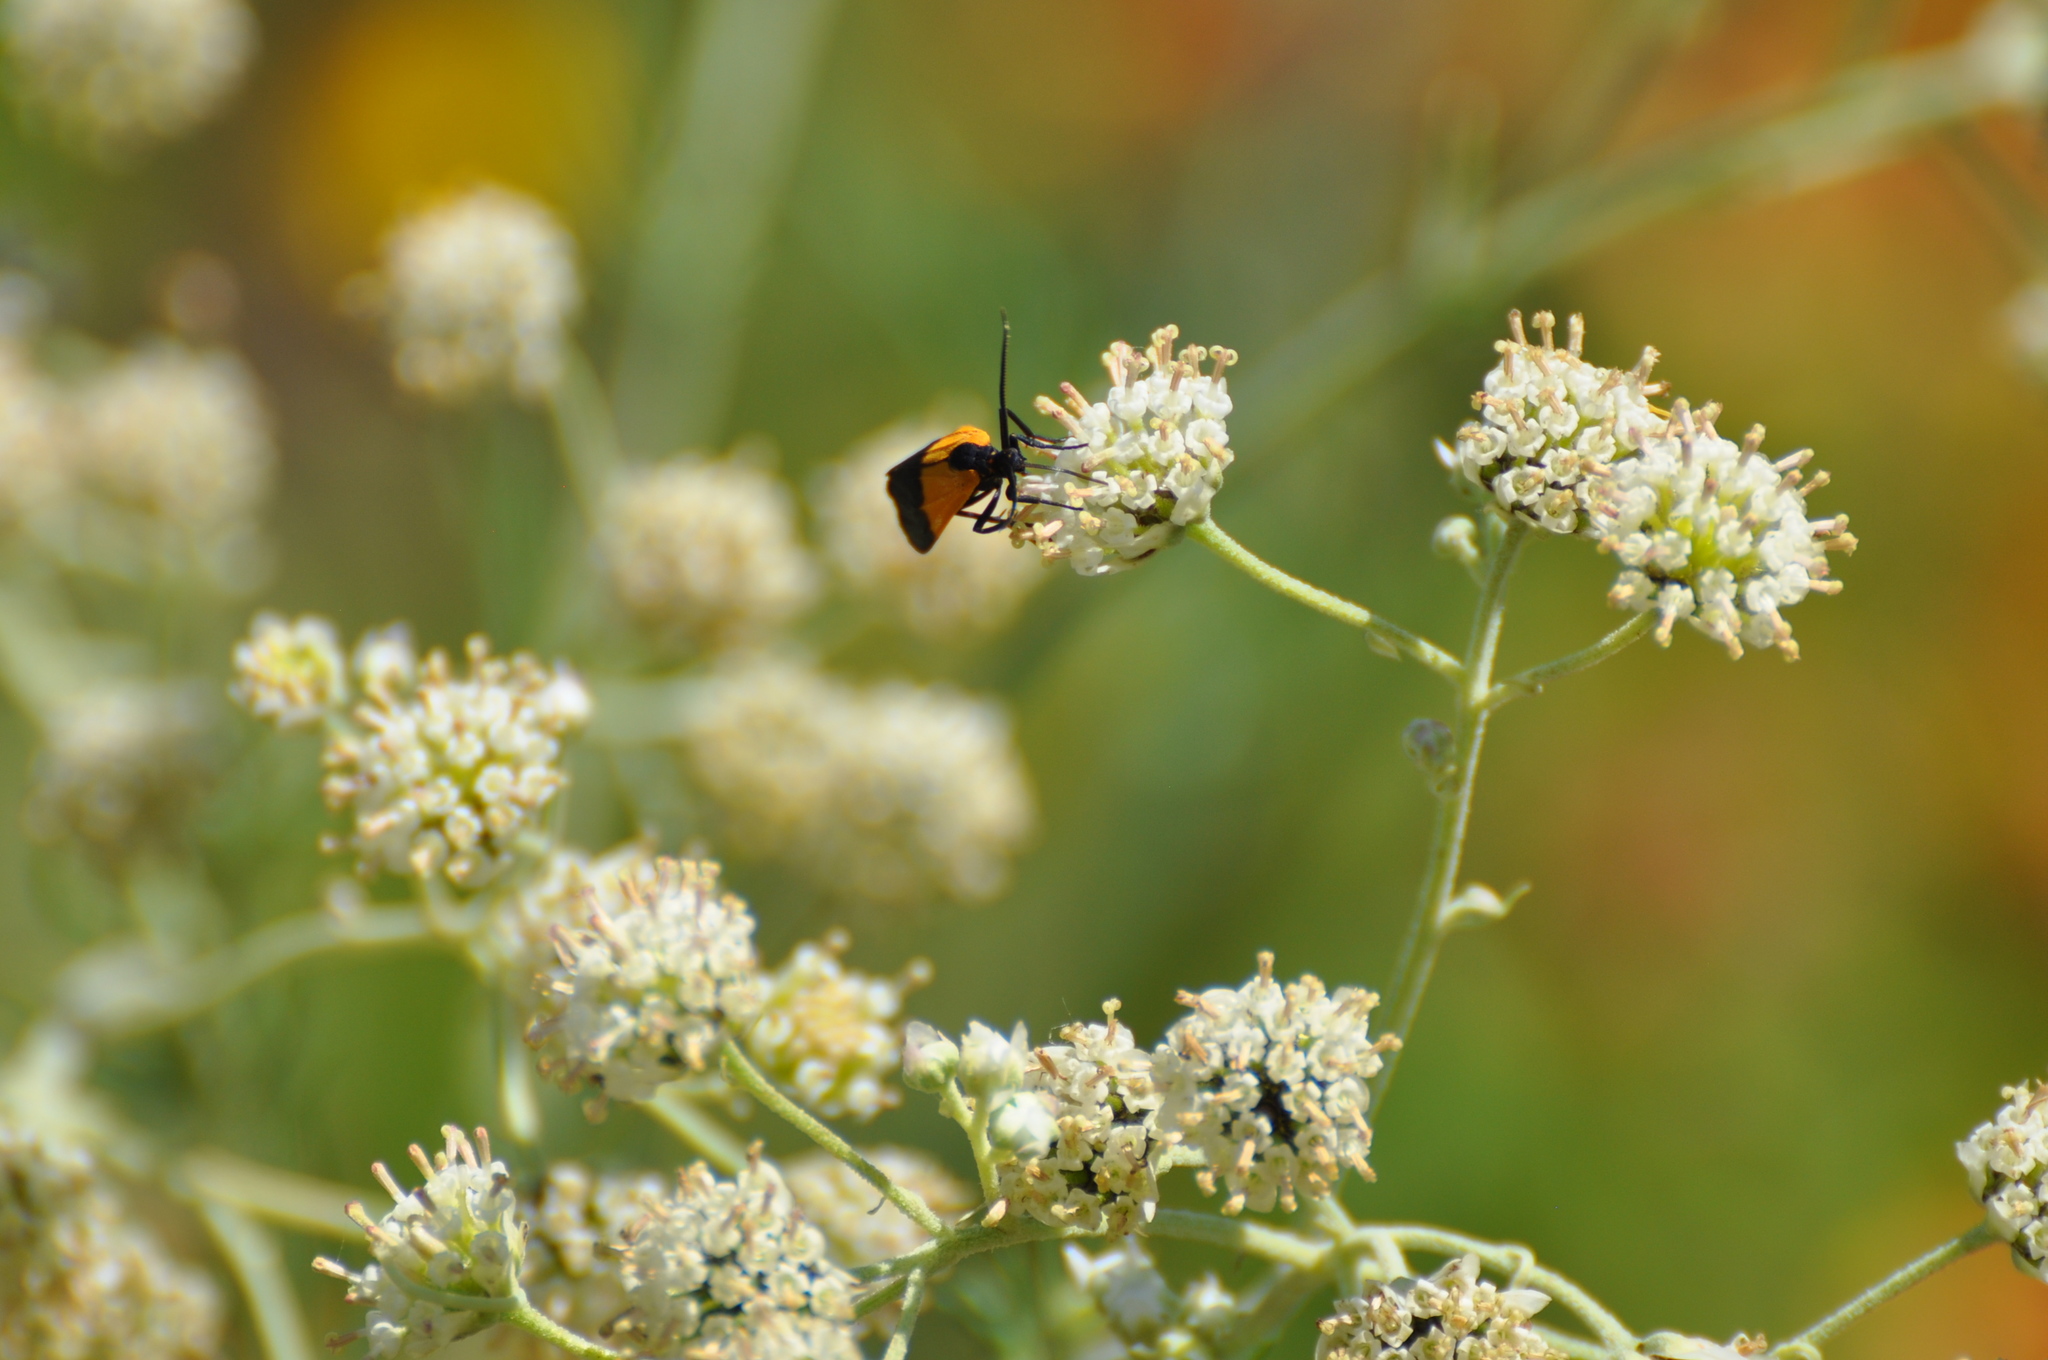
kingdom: Animalia
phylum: Arthropoda
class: Insecta
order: Lepidoptera
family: Erebidae
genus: Lycomorpha
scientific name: Lycomorpha pholus
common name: Black-and-yellow lichen moth
